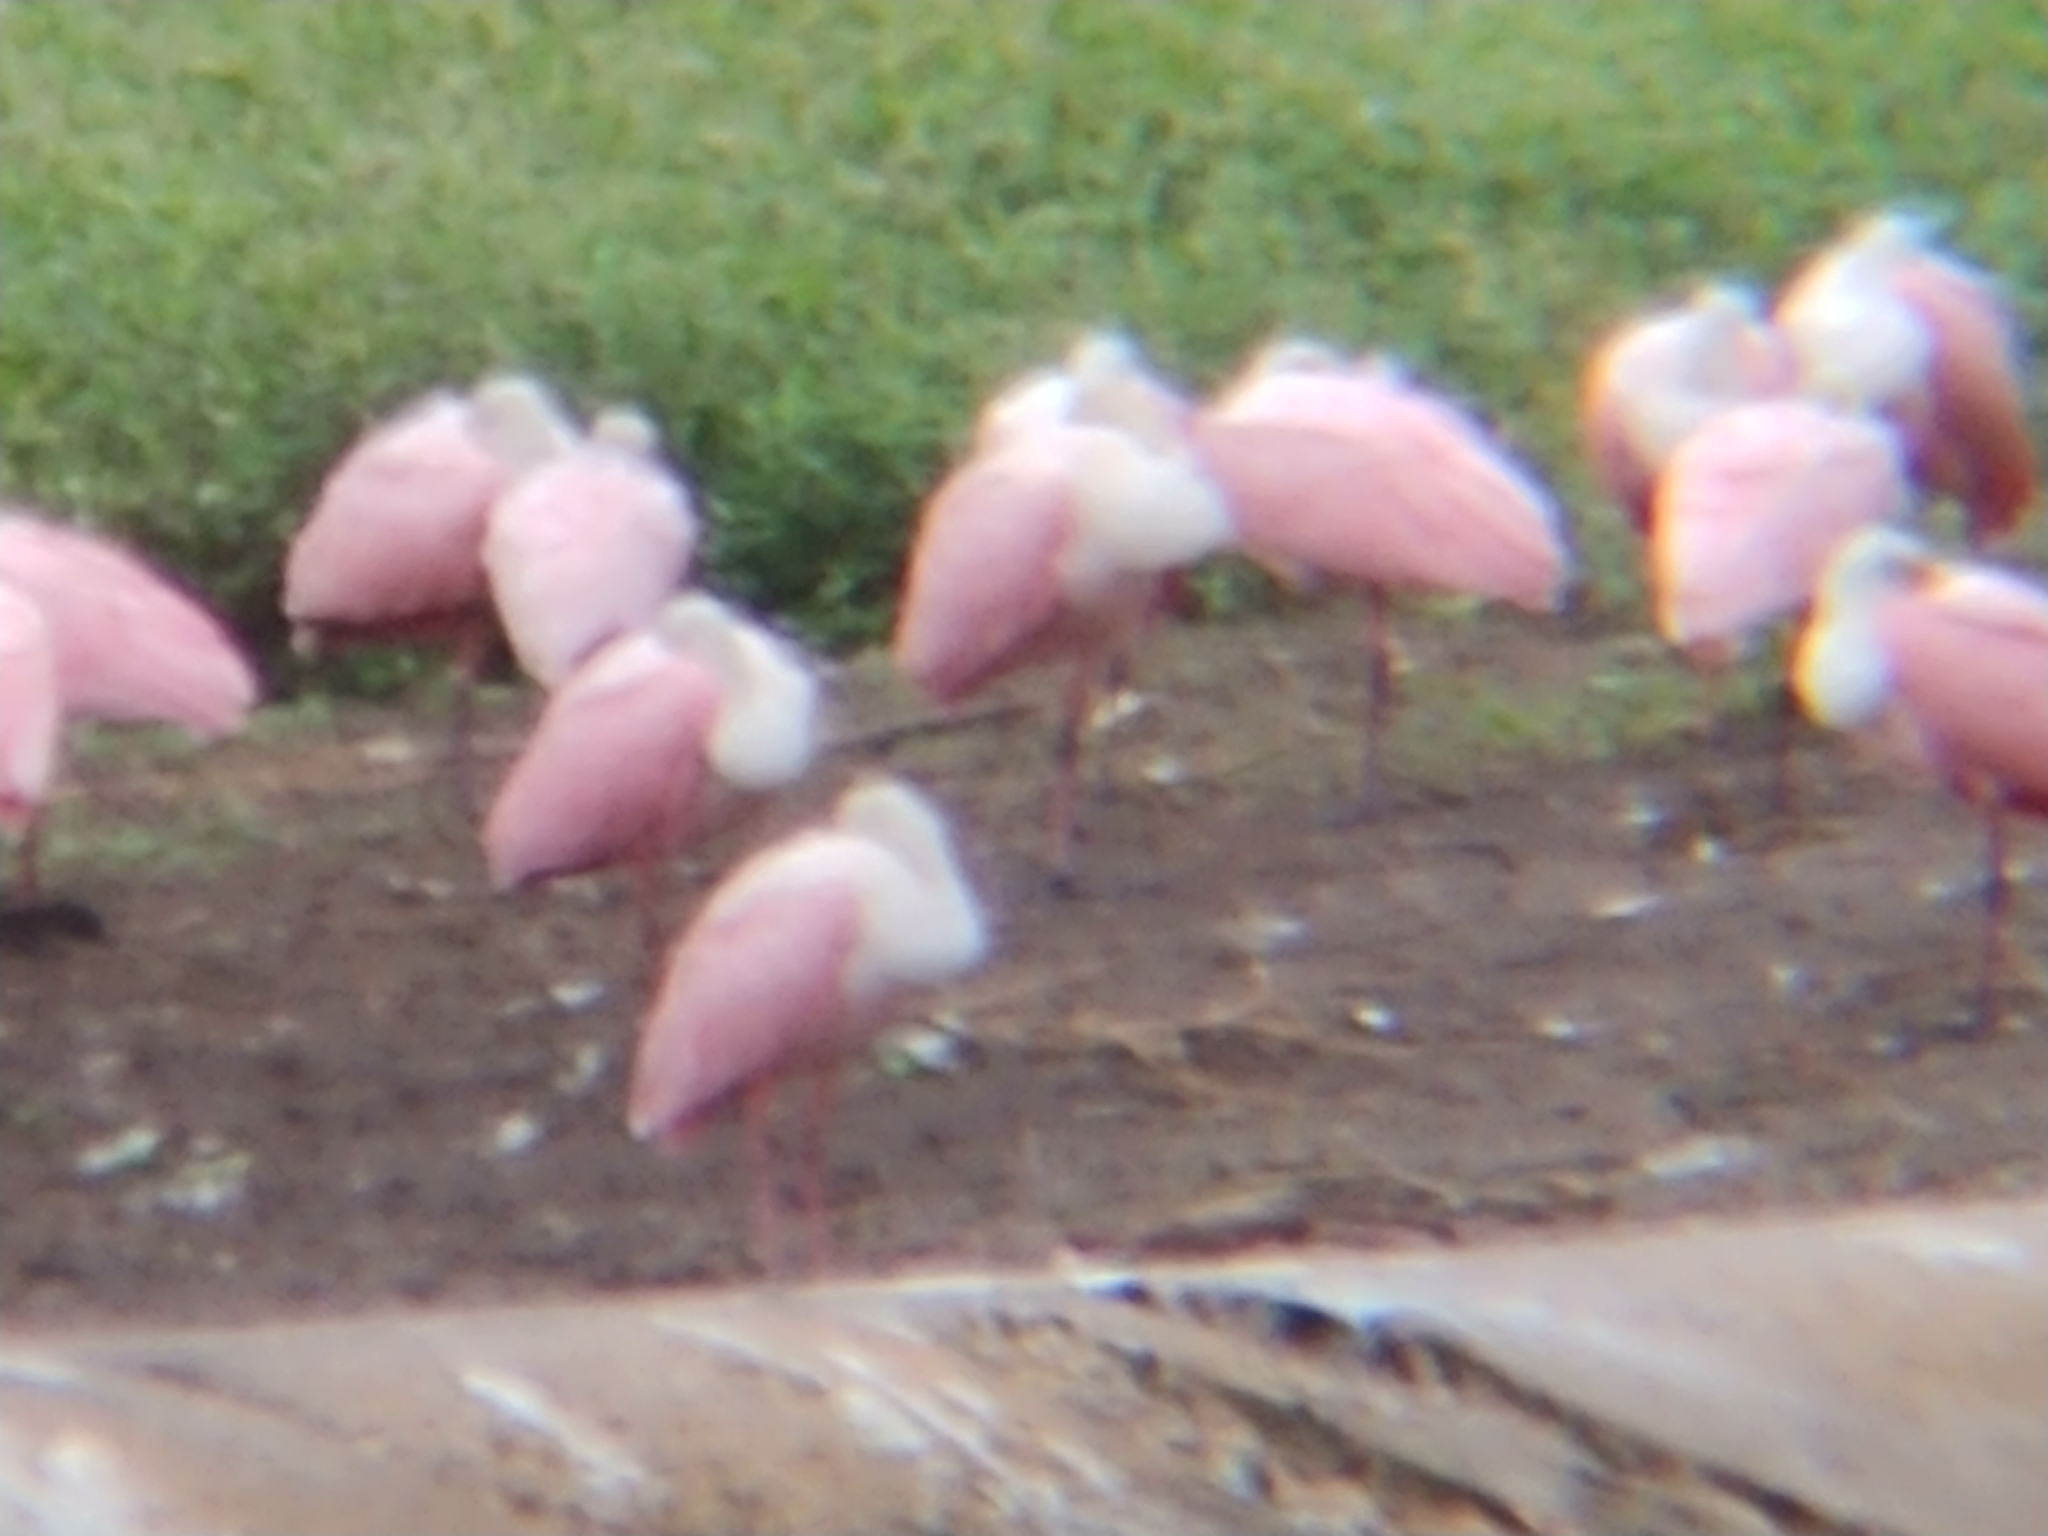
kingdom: Animalia
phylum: Chordata
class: Aves
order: Pelecaniformes
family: Threskiornithidae
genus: Platalea
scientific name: Platalea ajaja
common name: Roseate spoonbill
